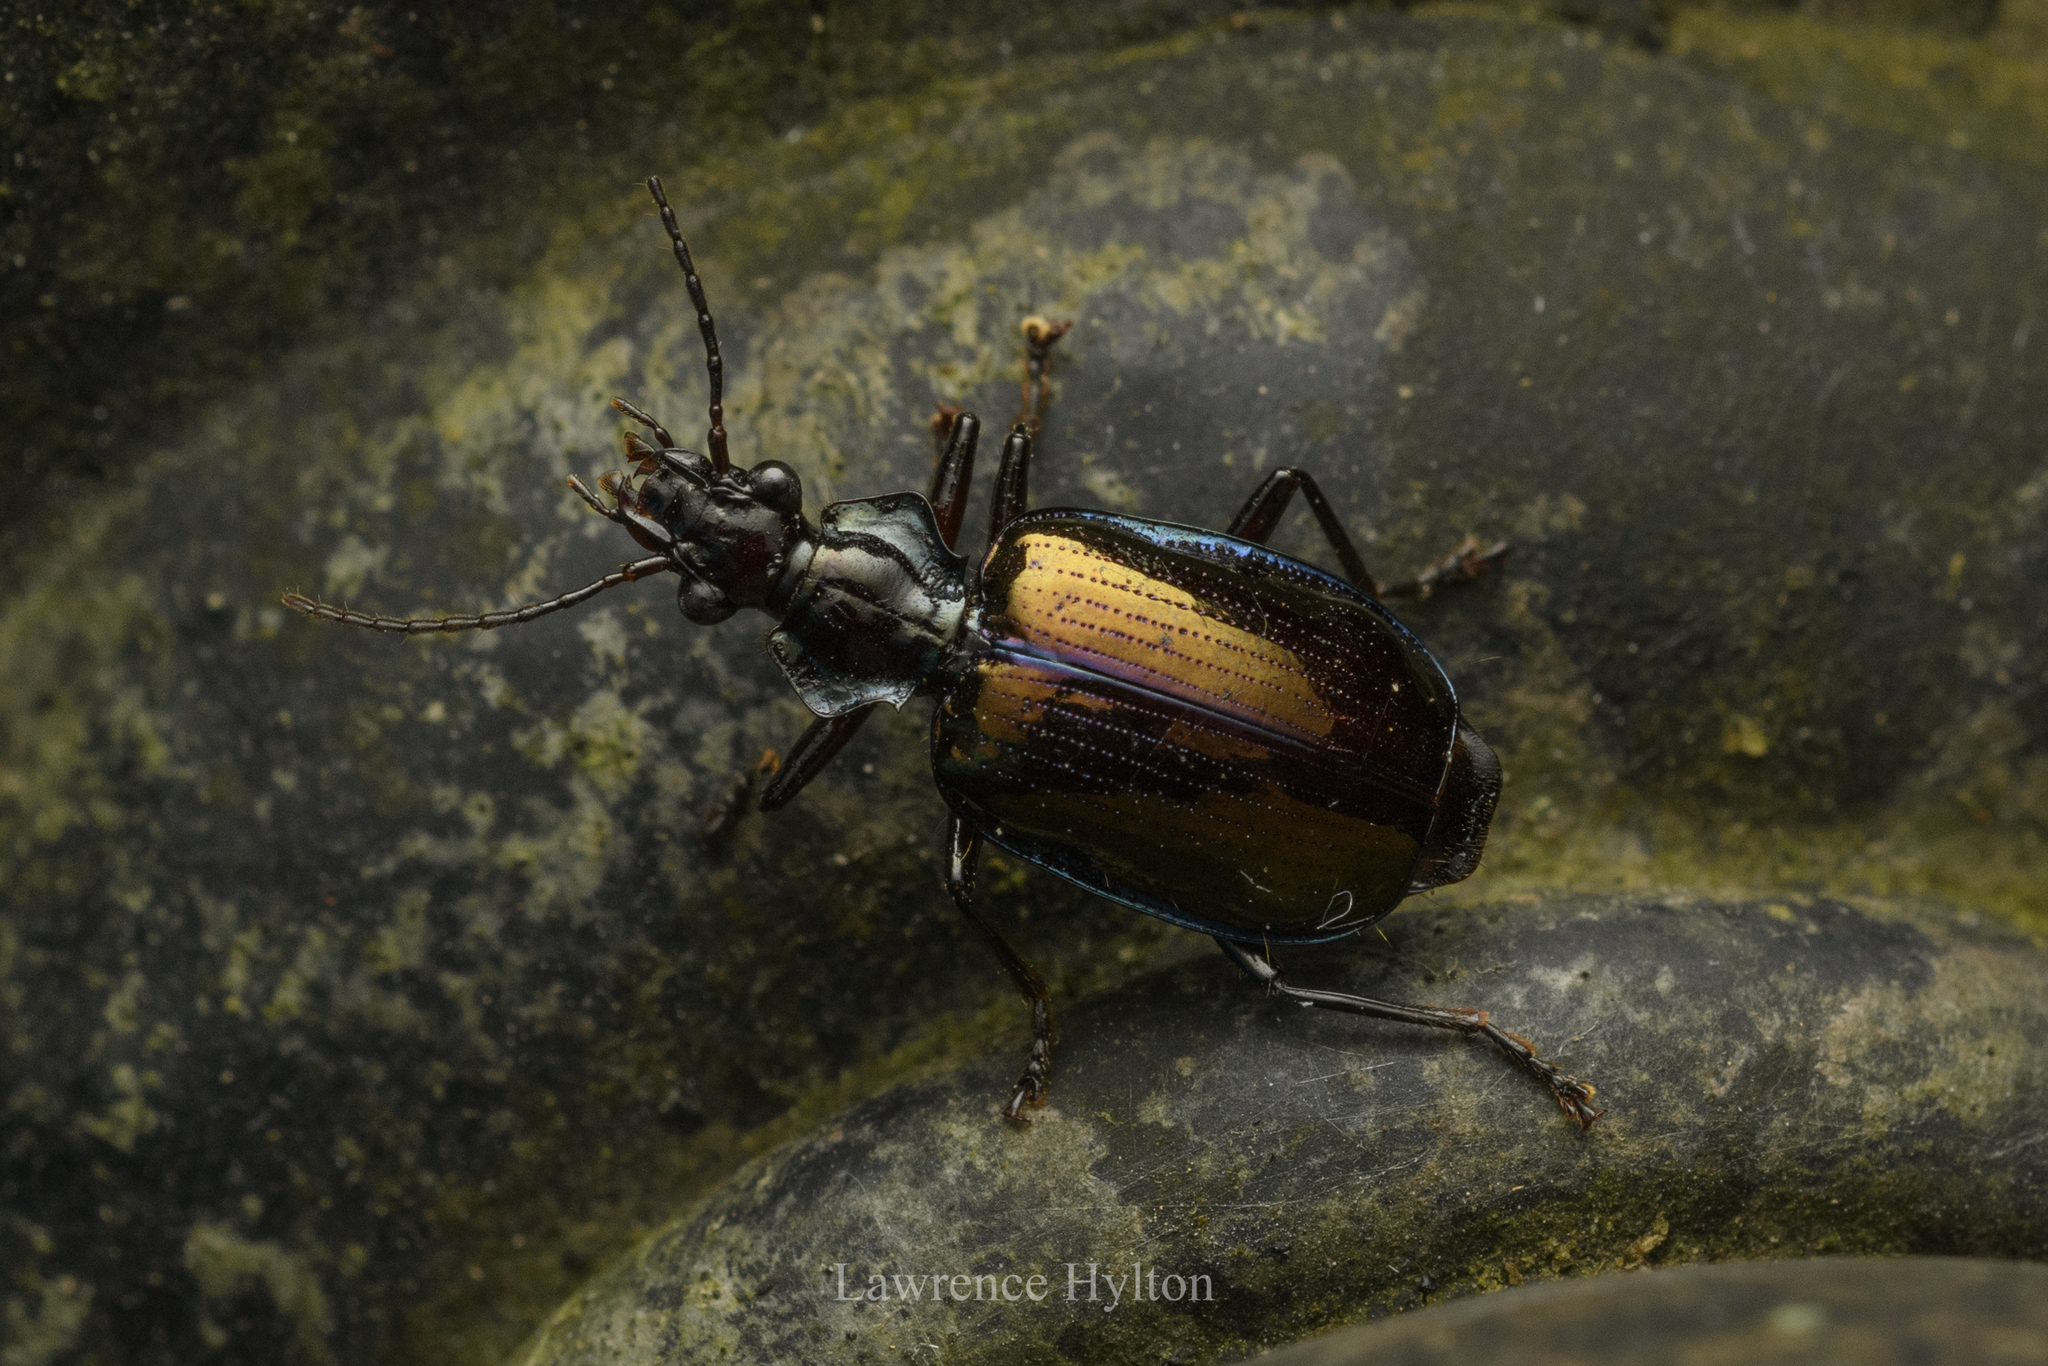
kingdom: Animalia
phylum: Arthropoda
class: Insecta
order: Coleoptera
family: Carabidae
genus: Physodera
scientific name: Physodera eschscholtzii
